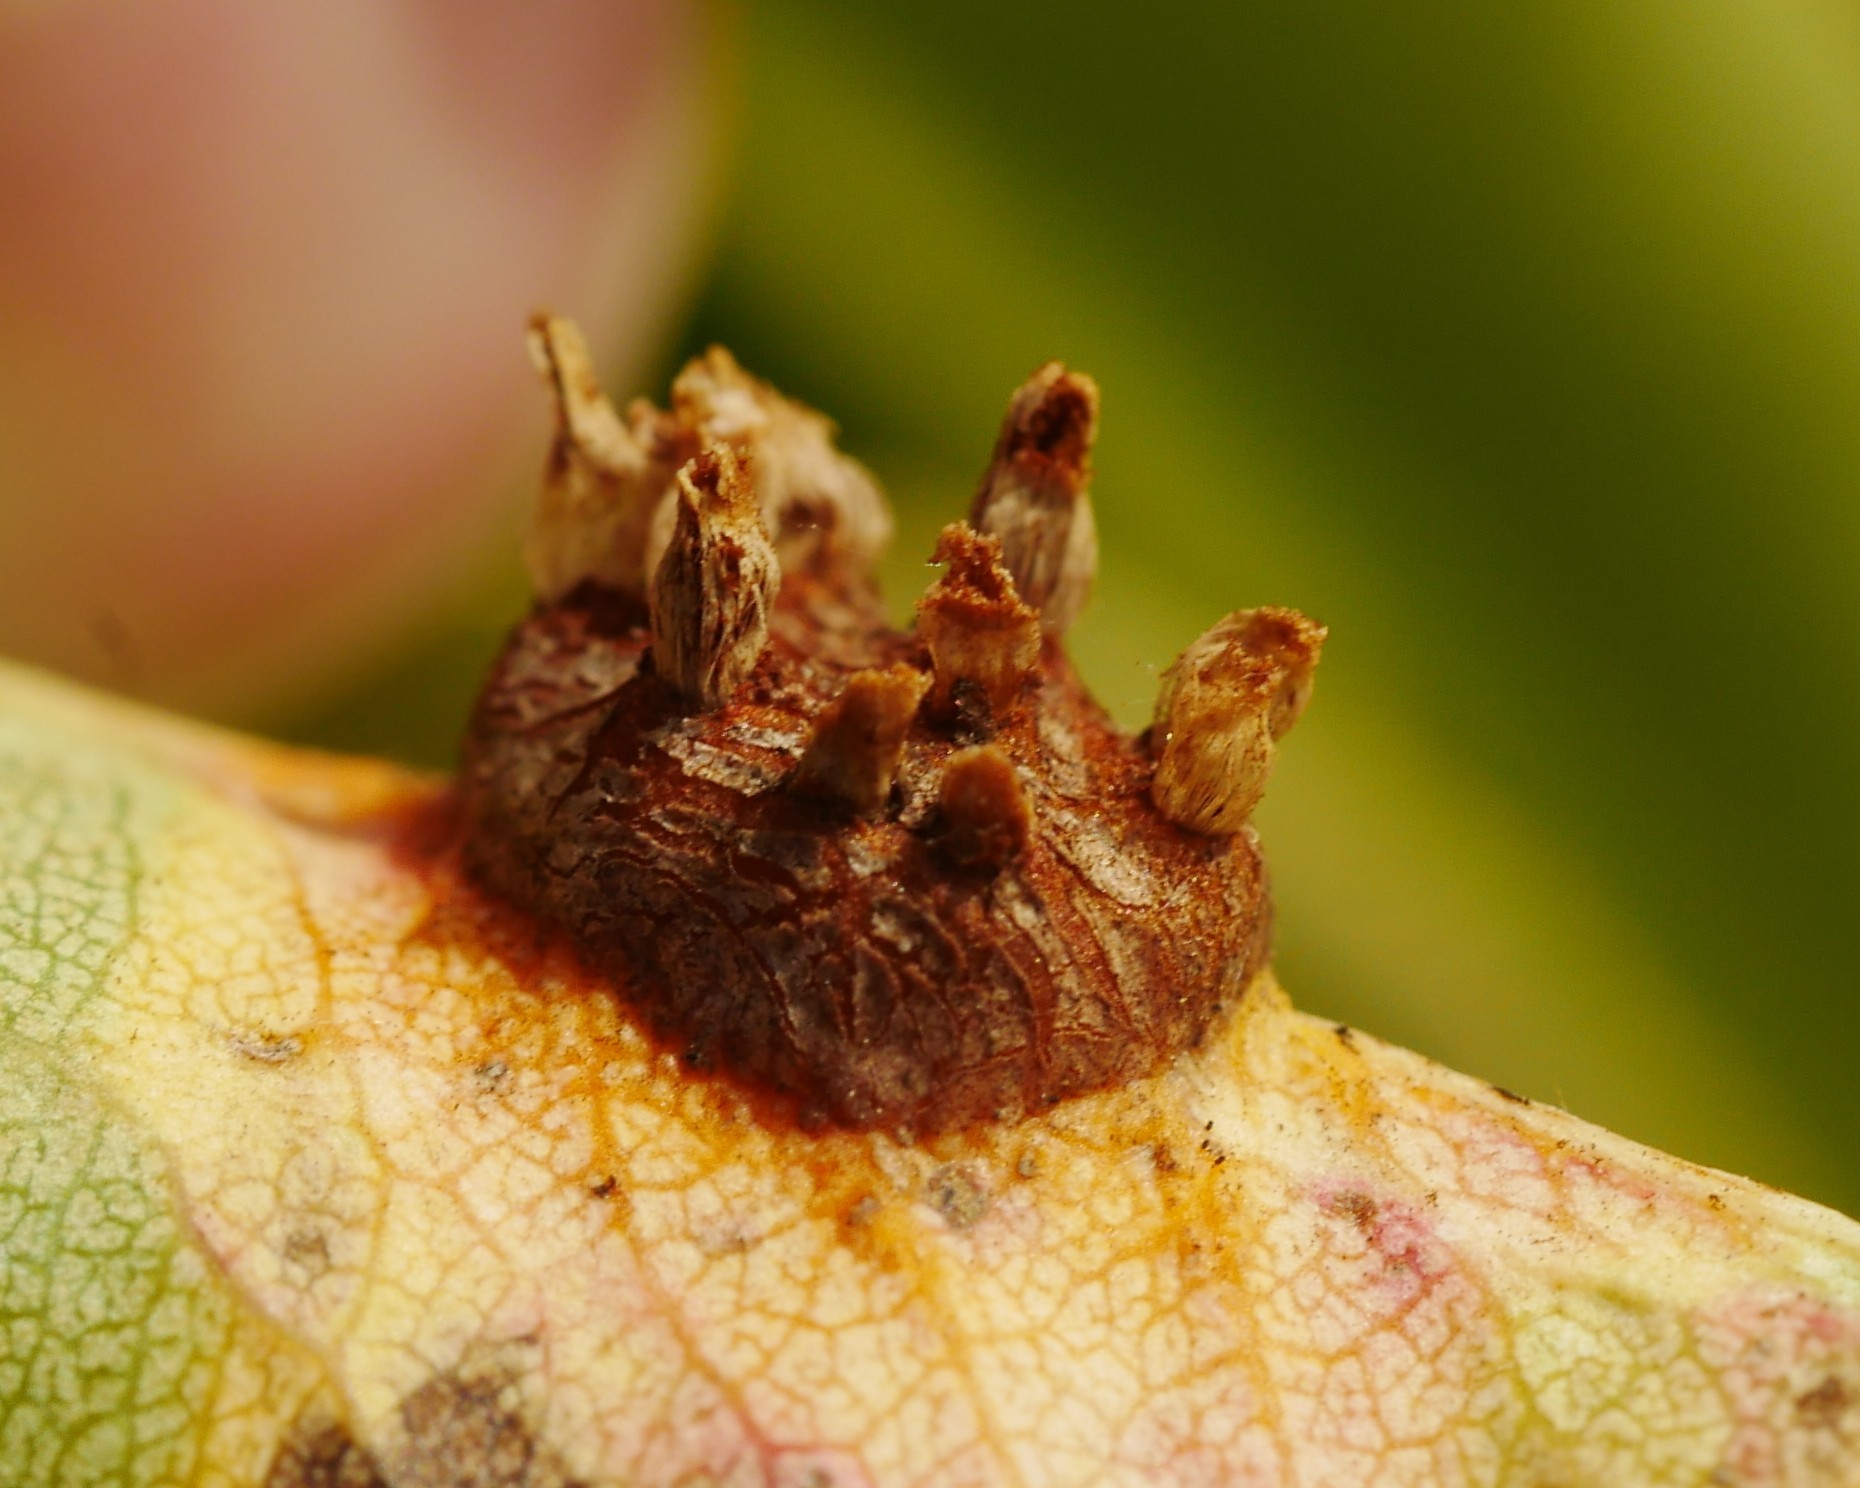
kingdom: Fungi
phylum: Basidiomycota
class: Pucciniomycetes
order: Pucciniales
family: Gymnosporangiaceae
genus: Gymnosporangium
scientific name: Gymnosporangium sabinae
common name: Pear trellis rust fungus
